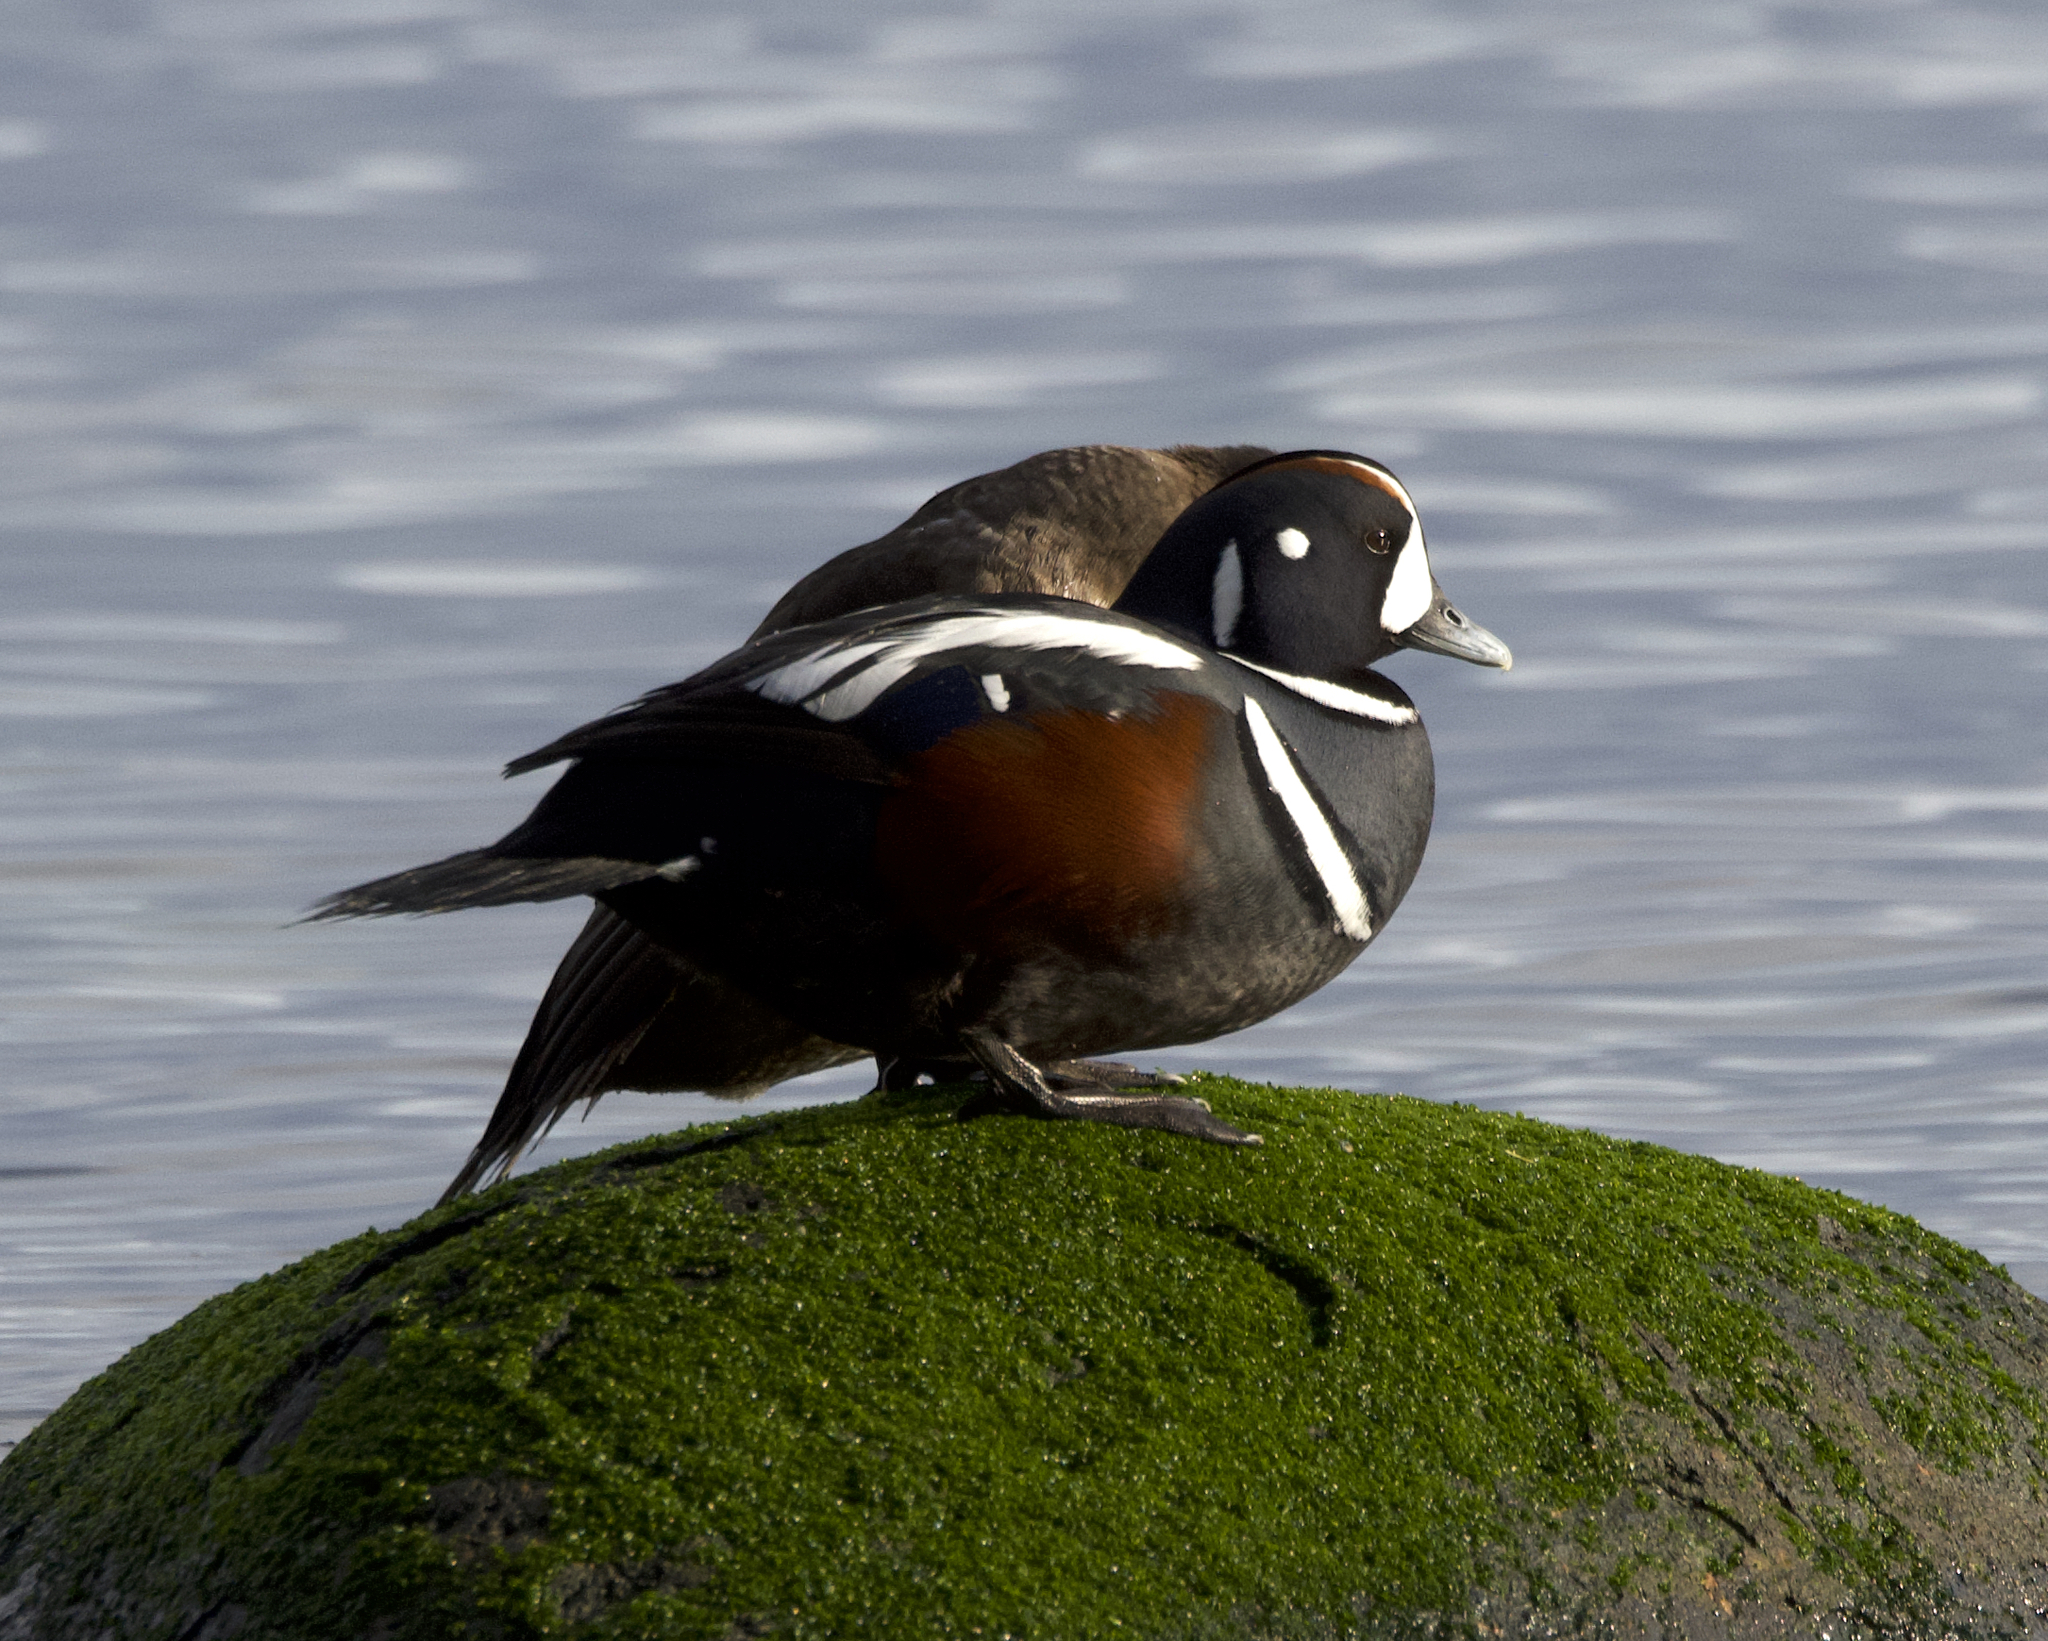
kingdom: Animalia
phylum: Chordata
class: Aves
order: Anseriformes
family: Anatidae
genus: Histrionicus
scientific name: Histrionicus histrionicus
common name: Harlequin duck
